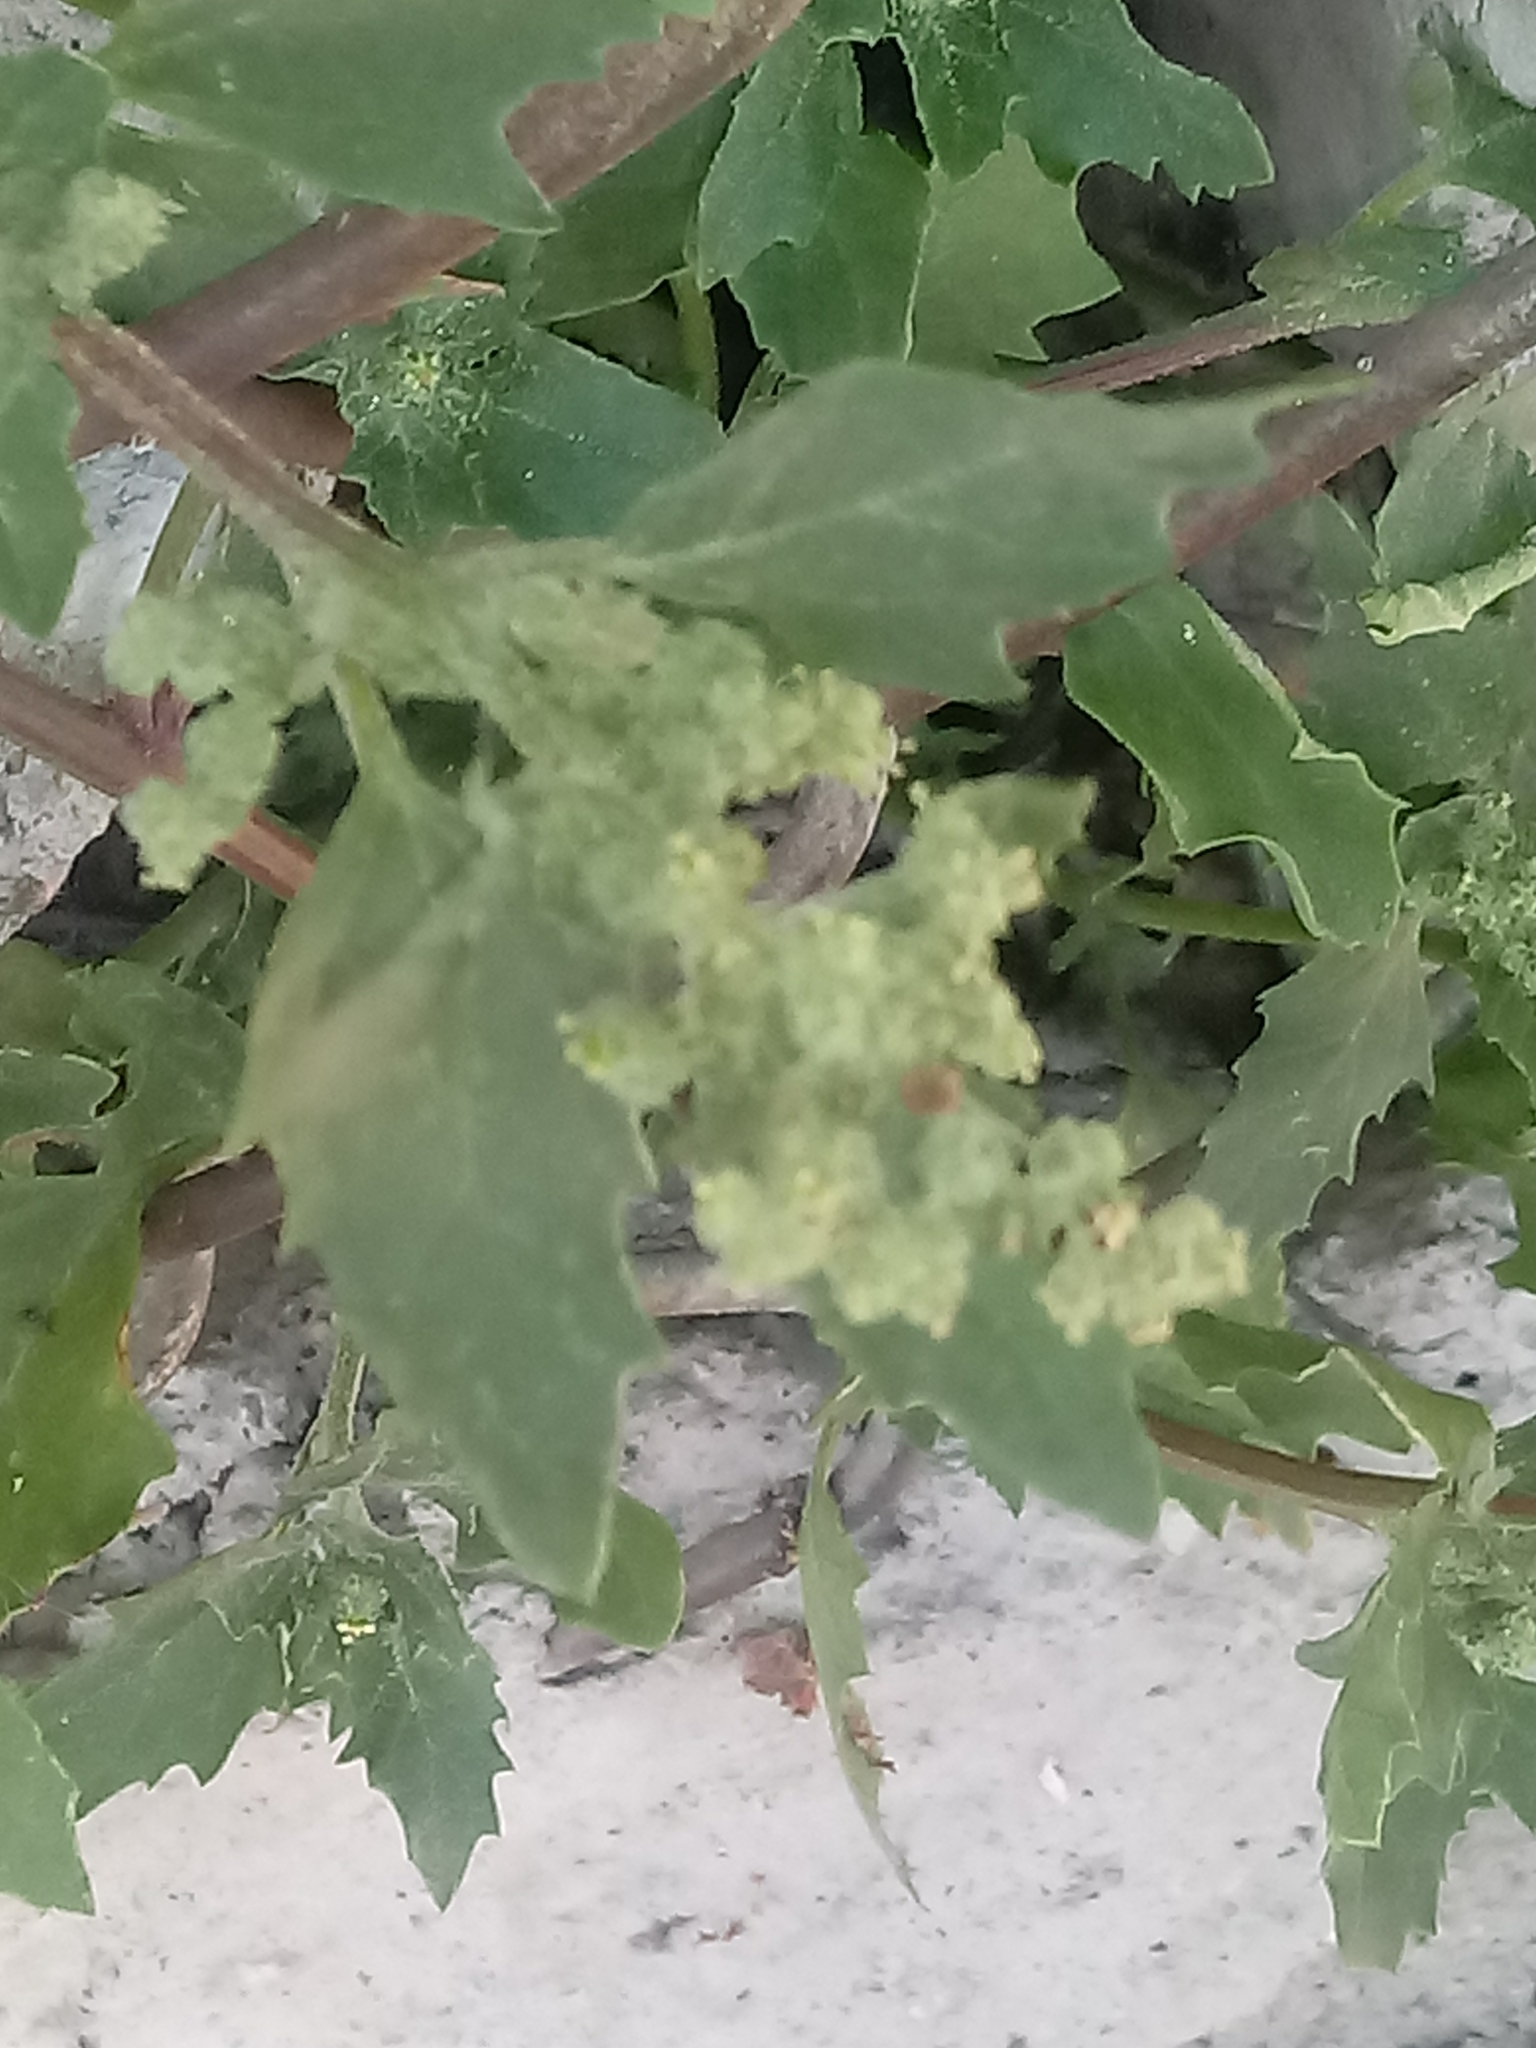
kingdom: Plantae
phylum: Tracheophyta
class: Magnoliopsida
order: Caryophyllales
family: Amaranthaceae
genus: Chenopodiastrum
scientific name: Chenopodiastrum murale
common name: Sowbane
